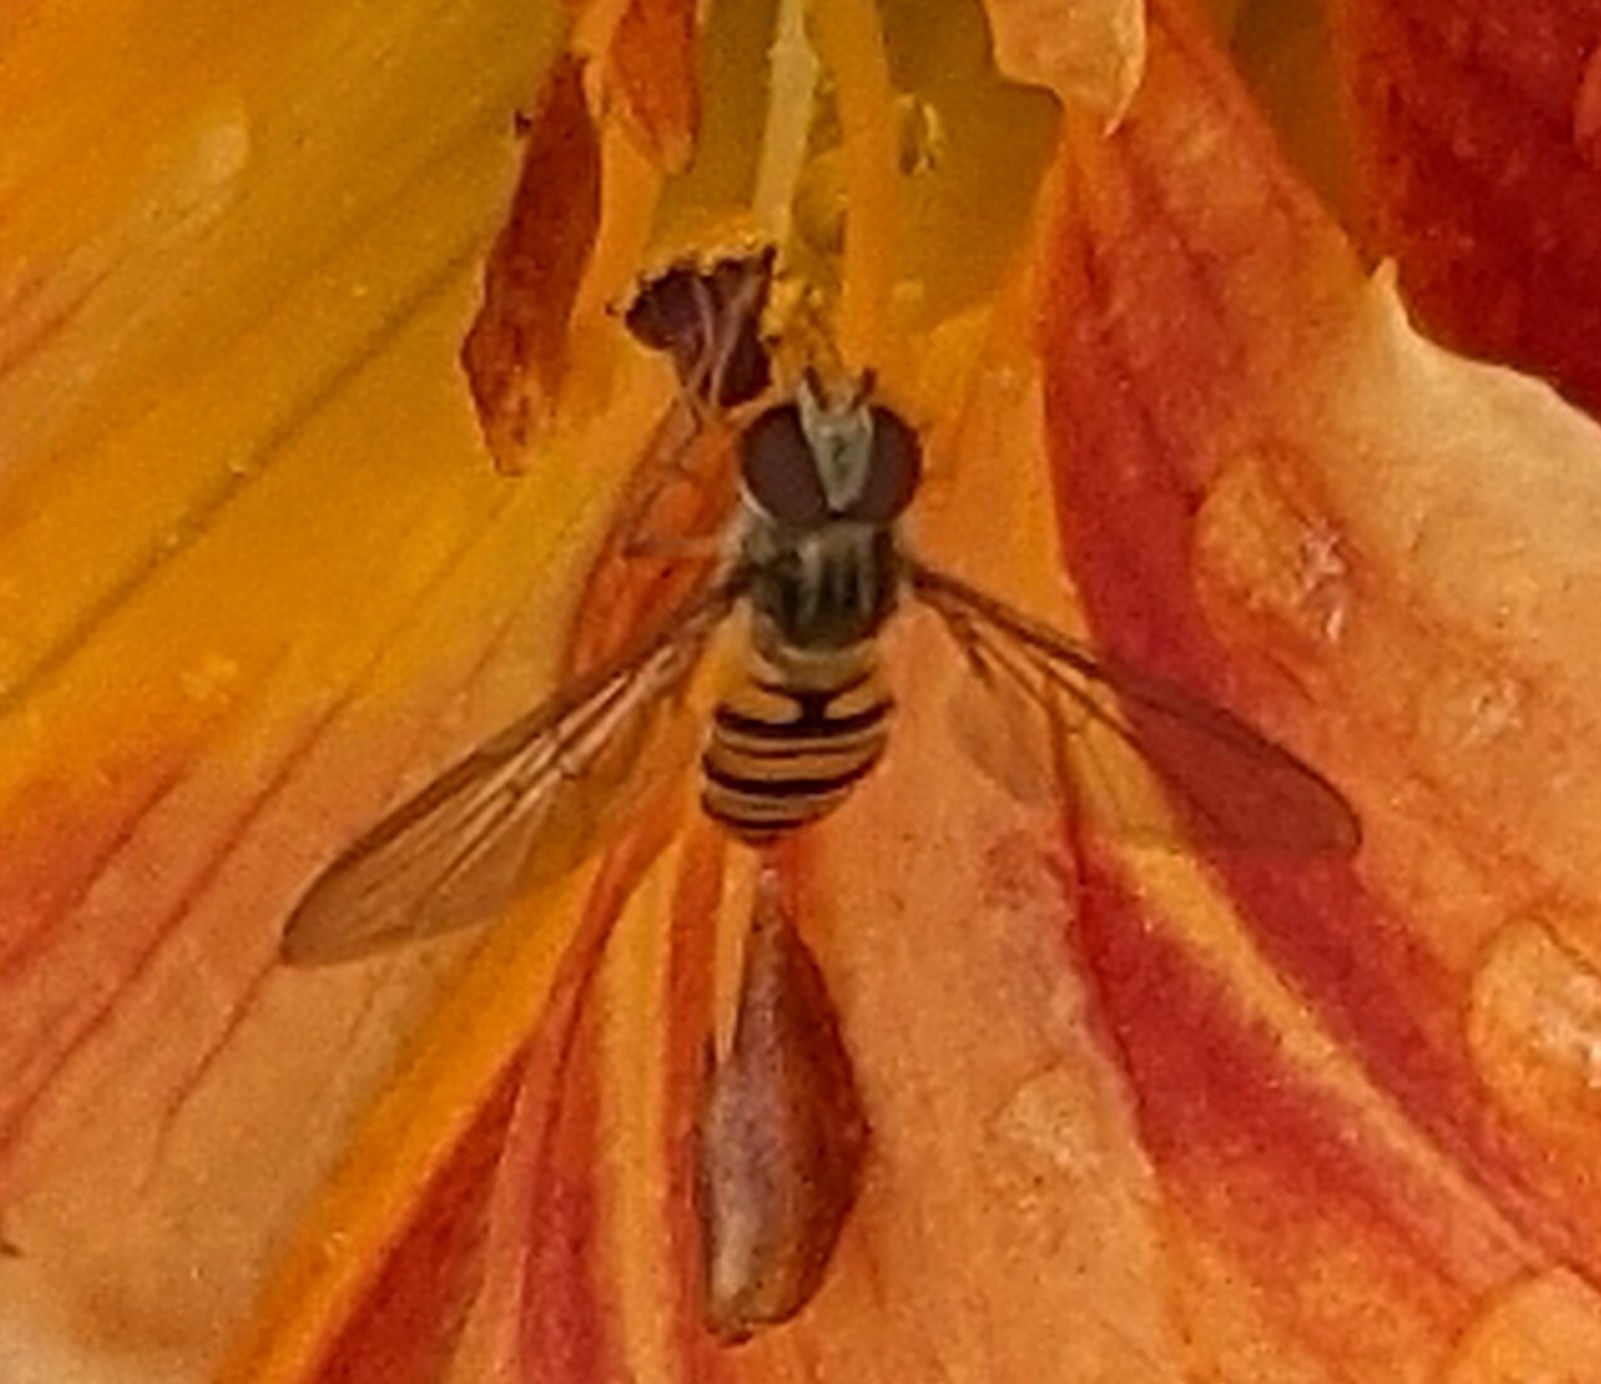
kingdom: Animalia
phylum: Arthropoda
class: Insecta
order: Diptera
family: Syrphidae
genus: Episyrphus
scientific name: Episyrphus balteatus
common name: Marmalade hoverfly
